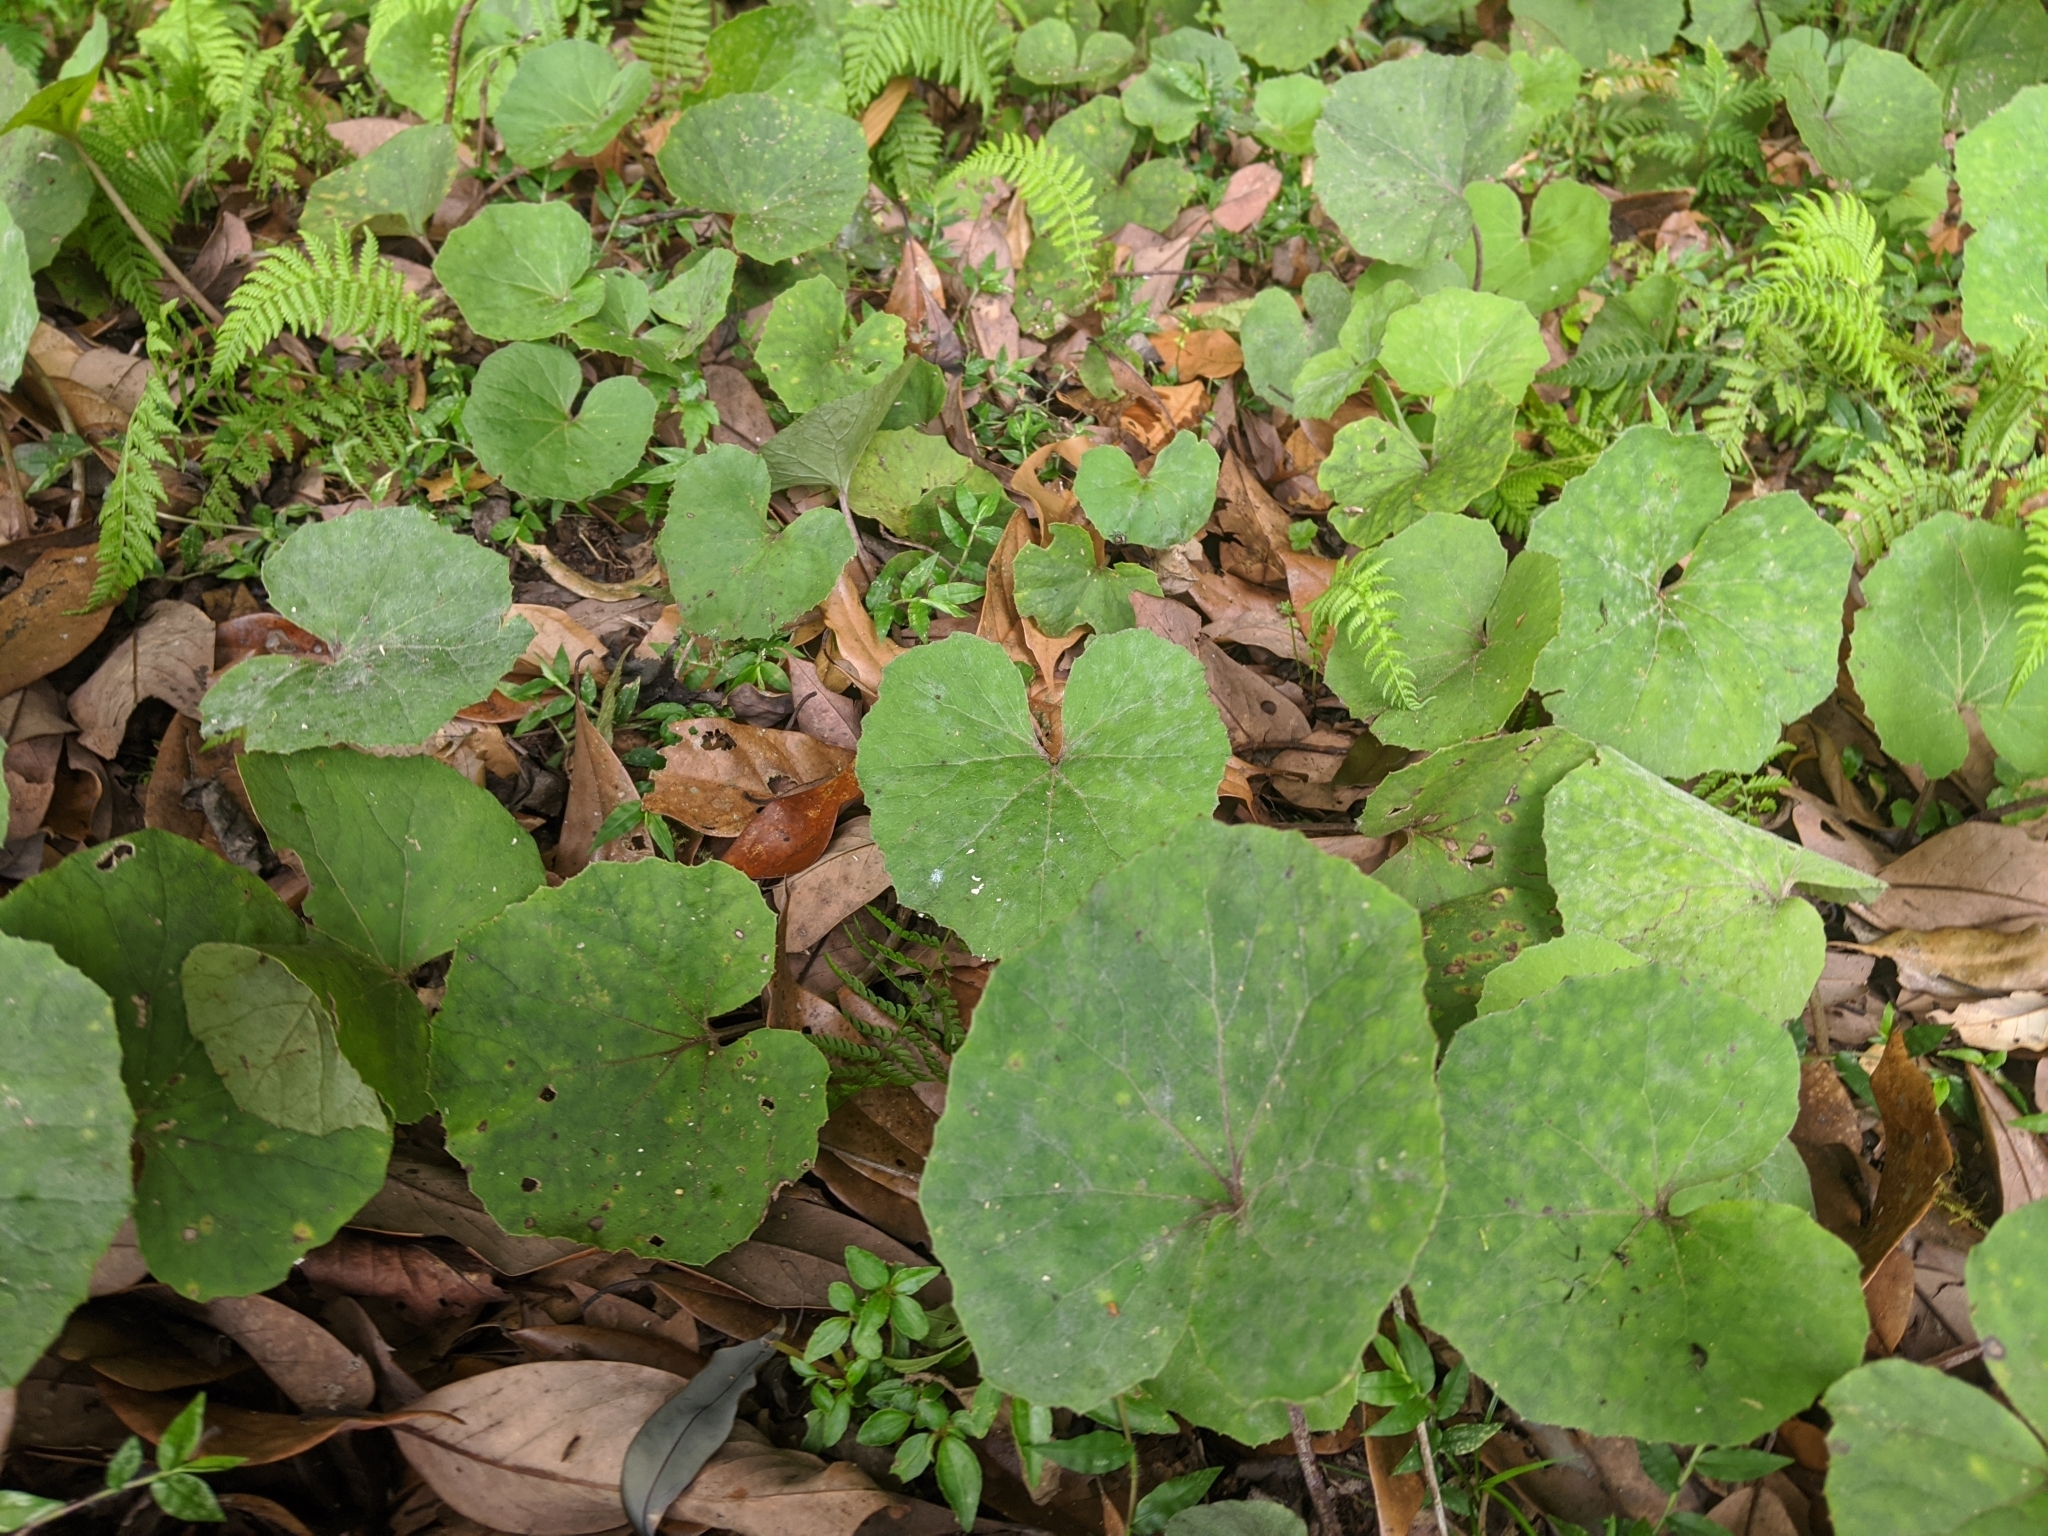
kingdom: Plantae
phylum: Tracheophyta
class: Magnoliopsida
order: Asterales
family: Asteraceae
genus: Petasites
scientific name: Petasites formosanus
